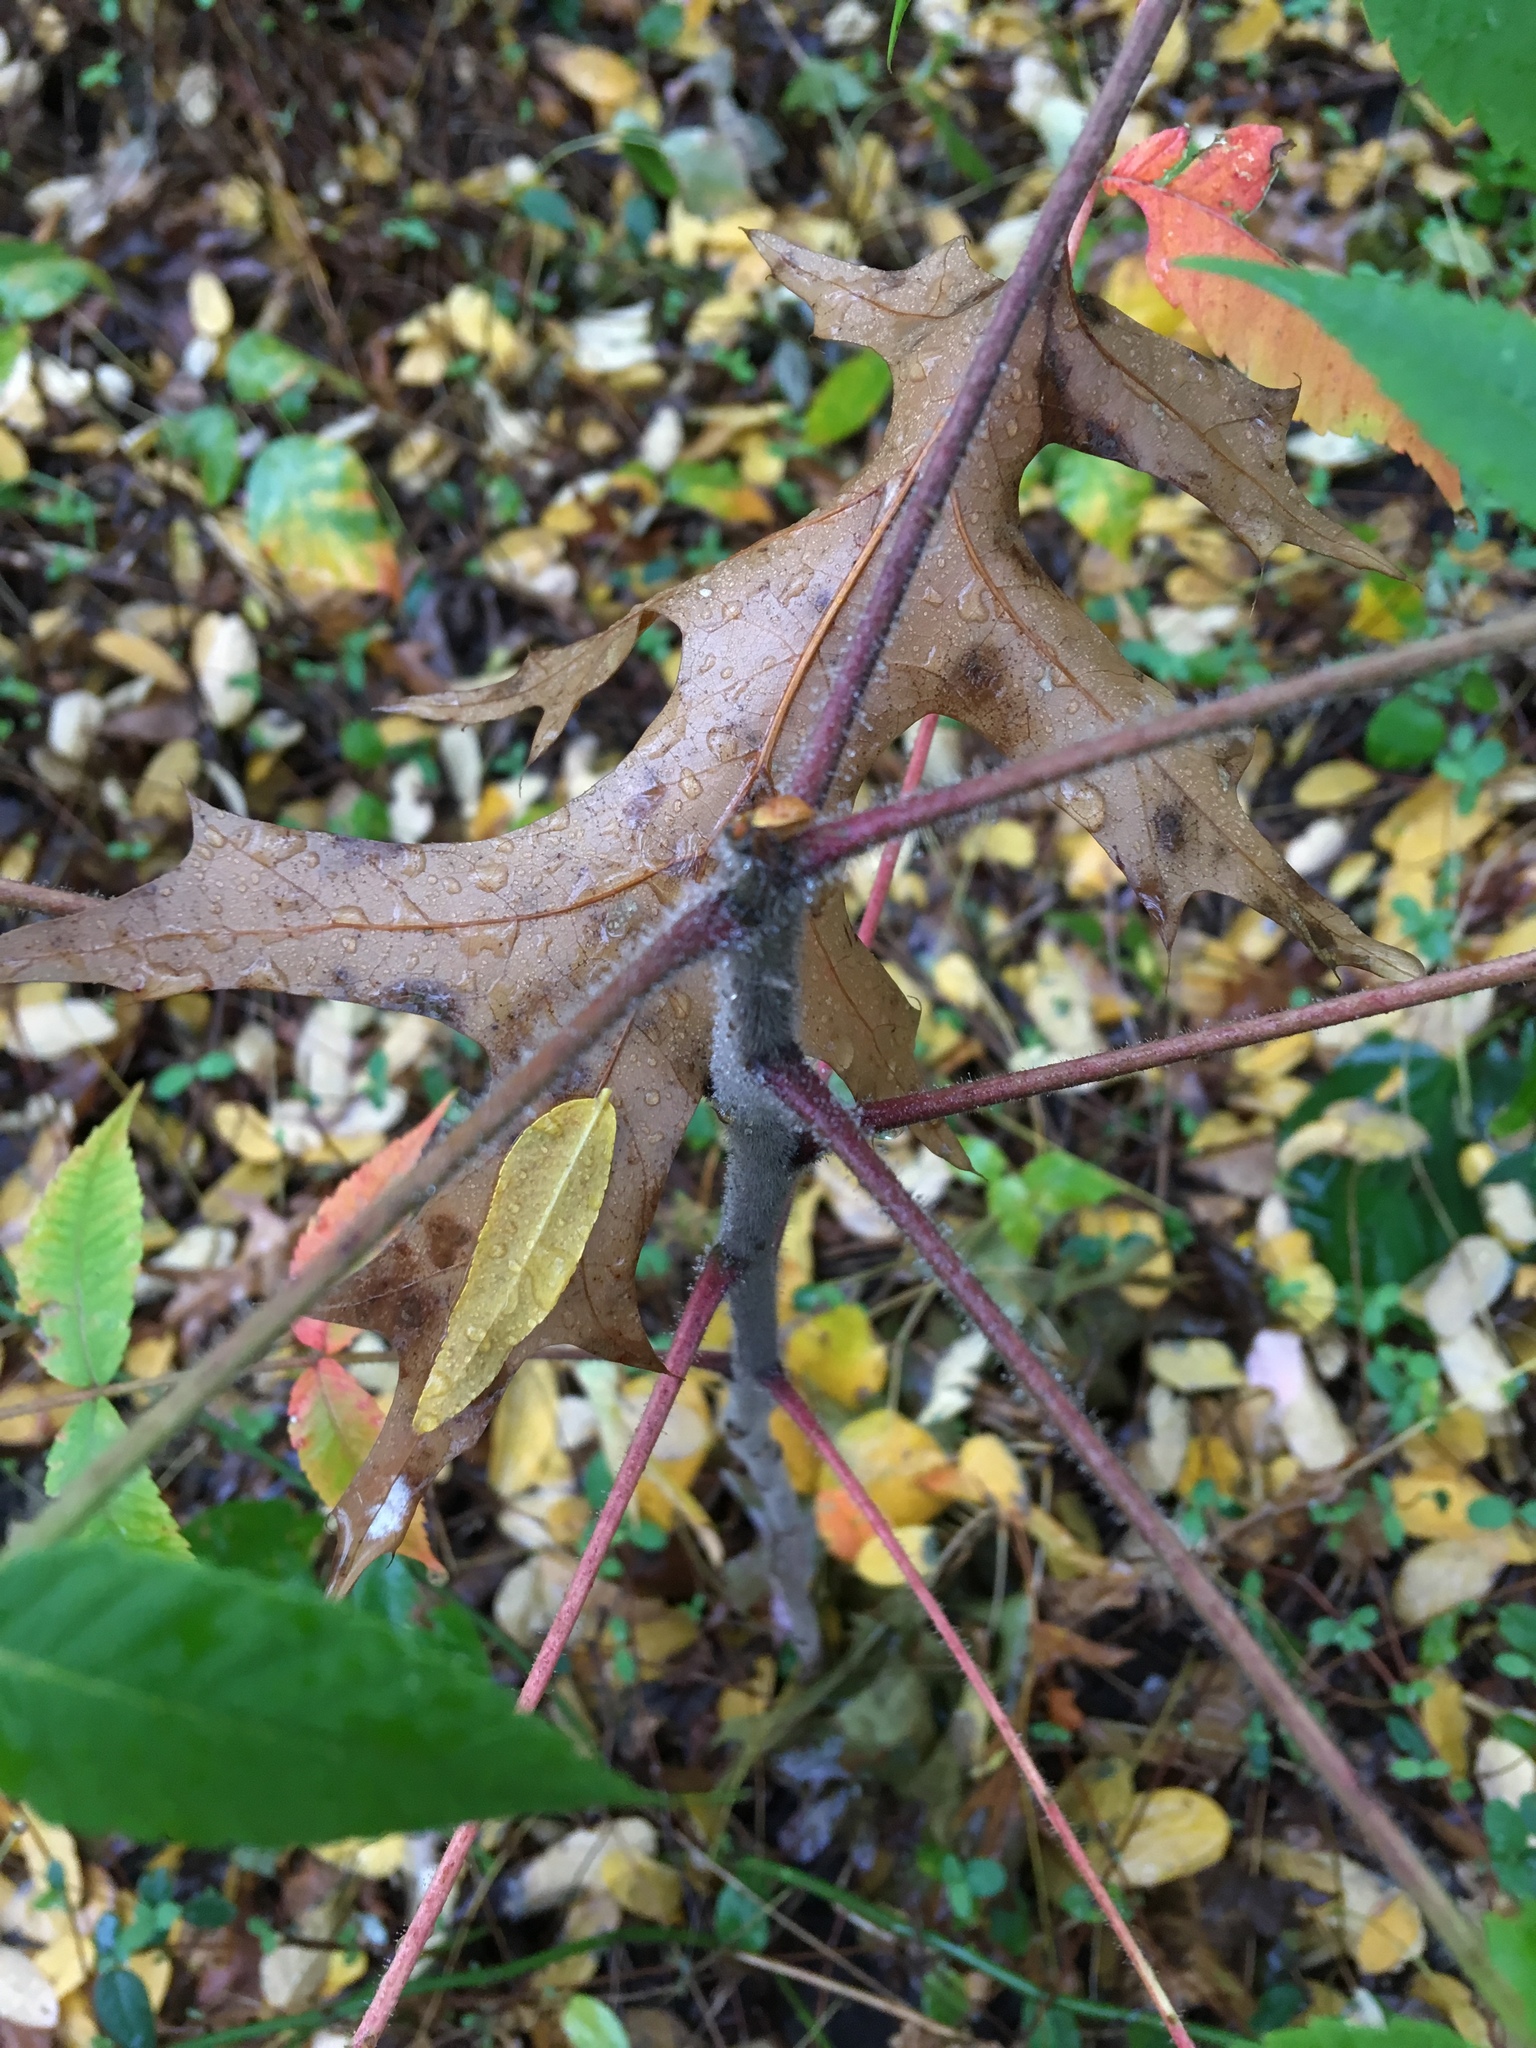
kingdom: Plantae
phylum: Tracheophyta
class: Magnoliopsida
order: Sapindales
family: Anacardiaceae
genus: Rhus
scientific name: Rhus typhina
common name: Staghorn sumac
